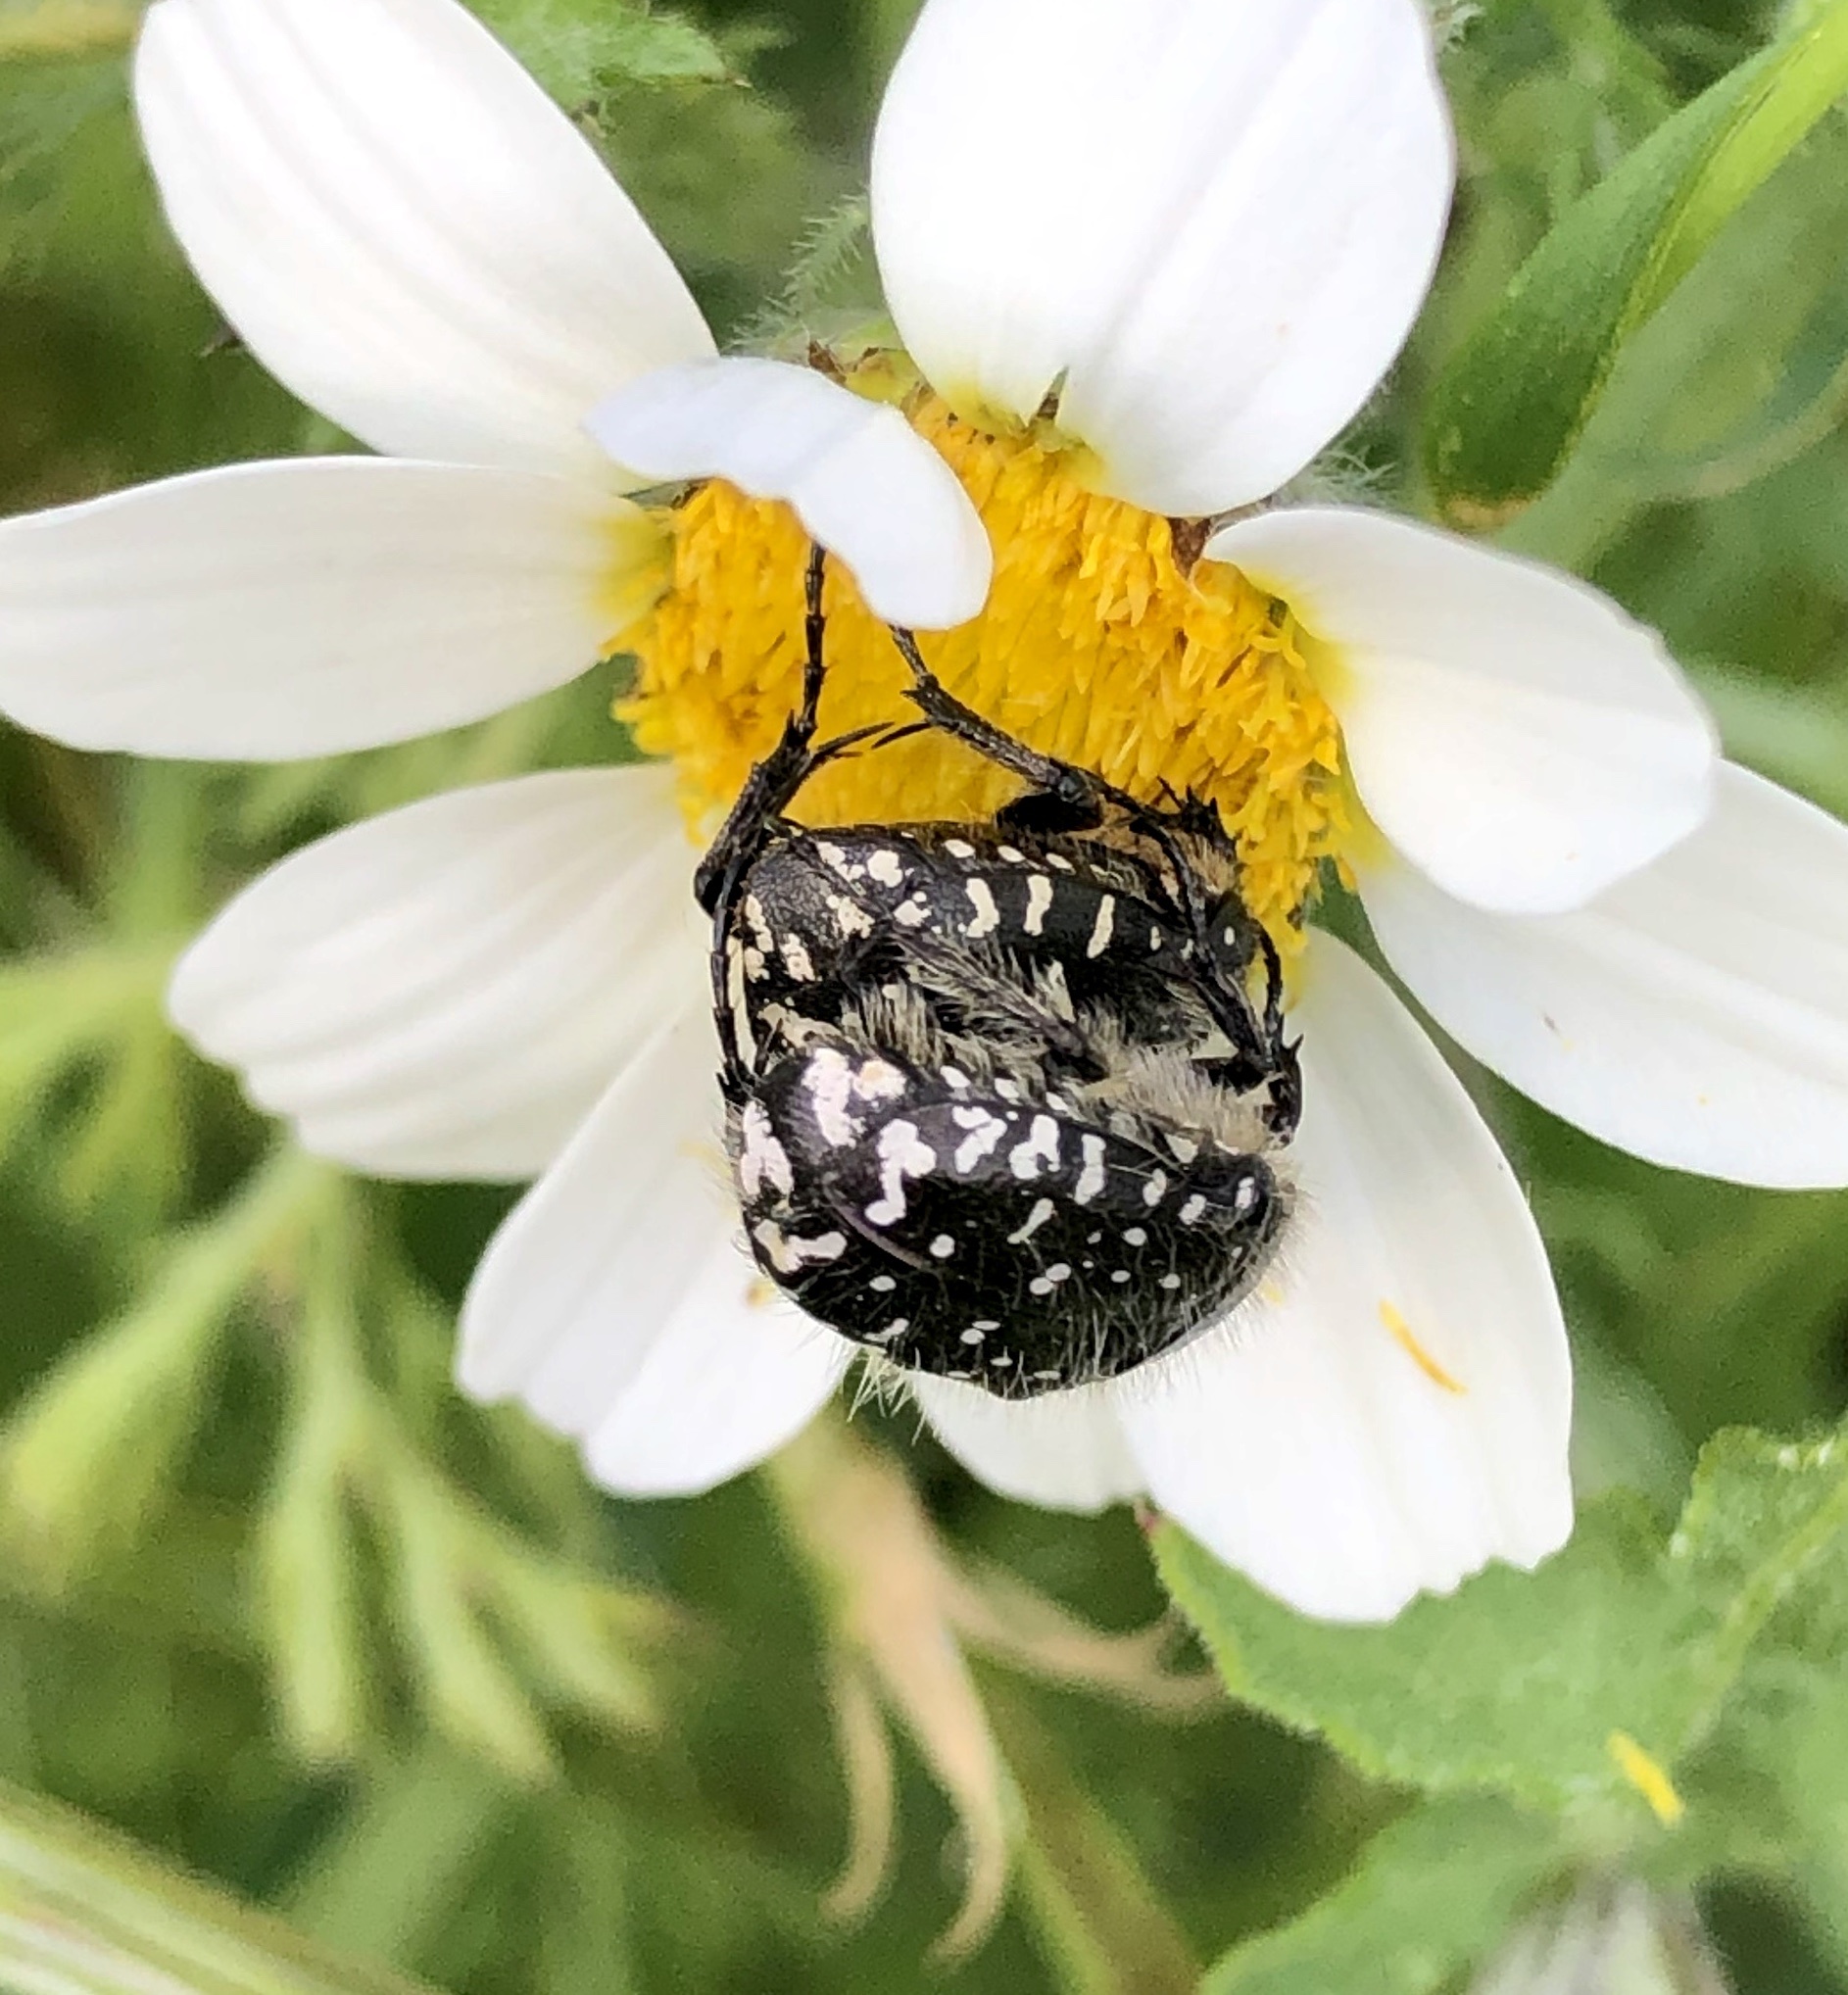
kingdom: Animalia
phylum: Arthropoda
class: Insecta
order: Coleoptera
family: Scarabaeidae
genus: Oxythyrea
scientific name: Oxythyrea funesta
